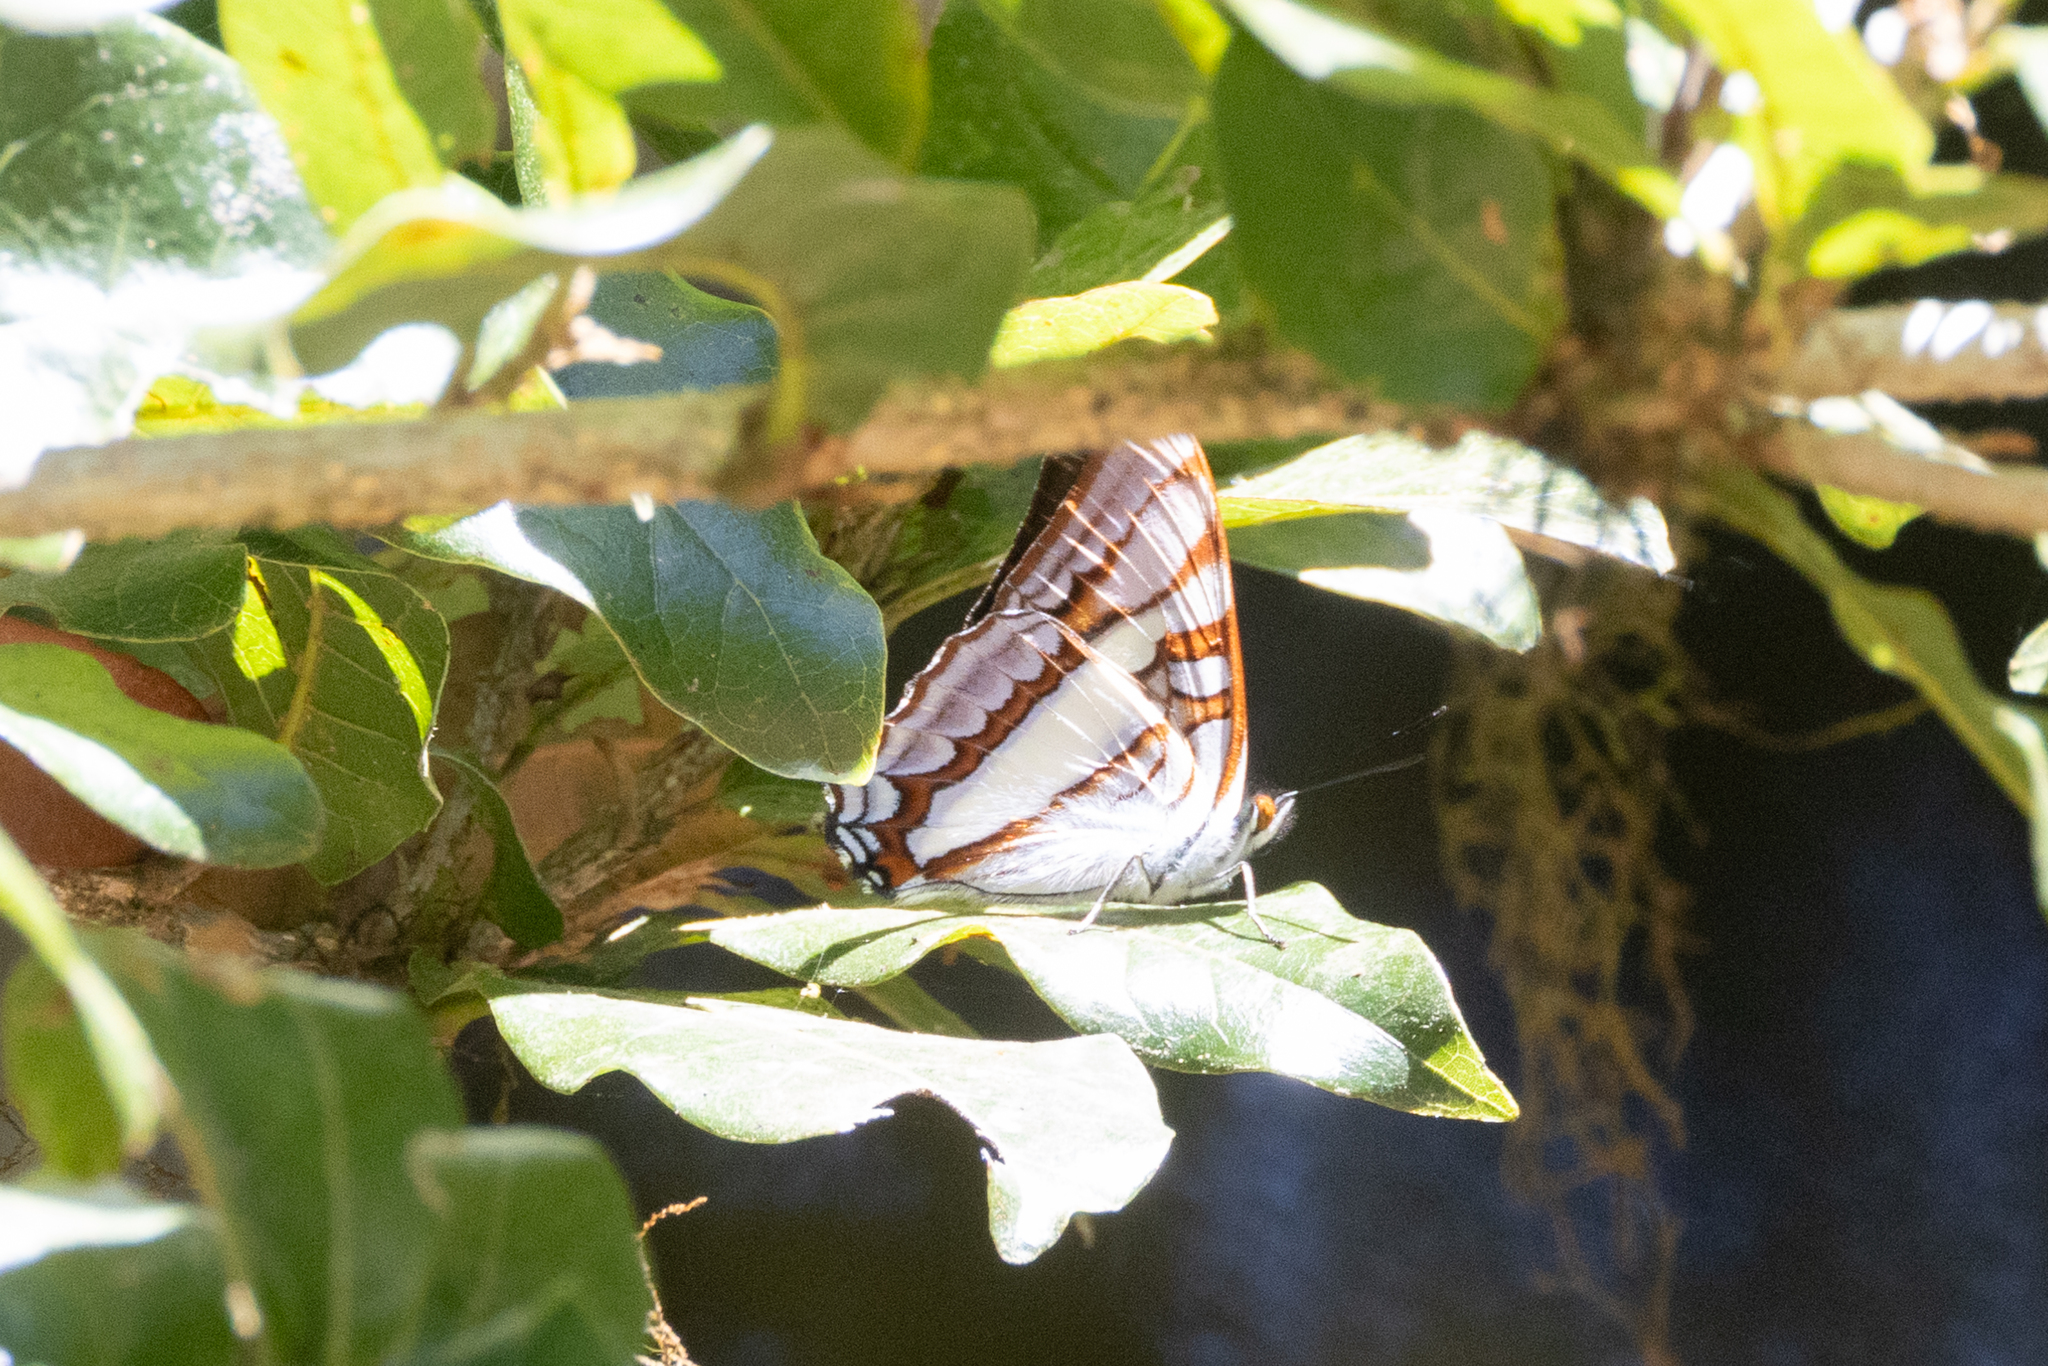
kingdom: Animalia
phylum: Arthropoda
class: Insecta
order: Lepidoptera
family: Nymphalidae
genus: Limenitis
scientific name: Limenitis diocles
